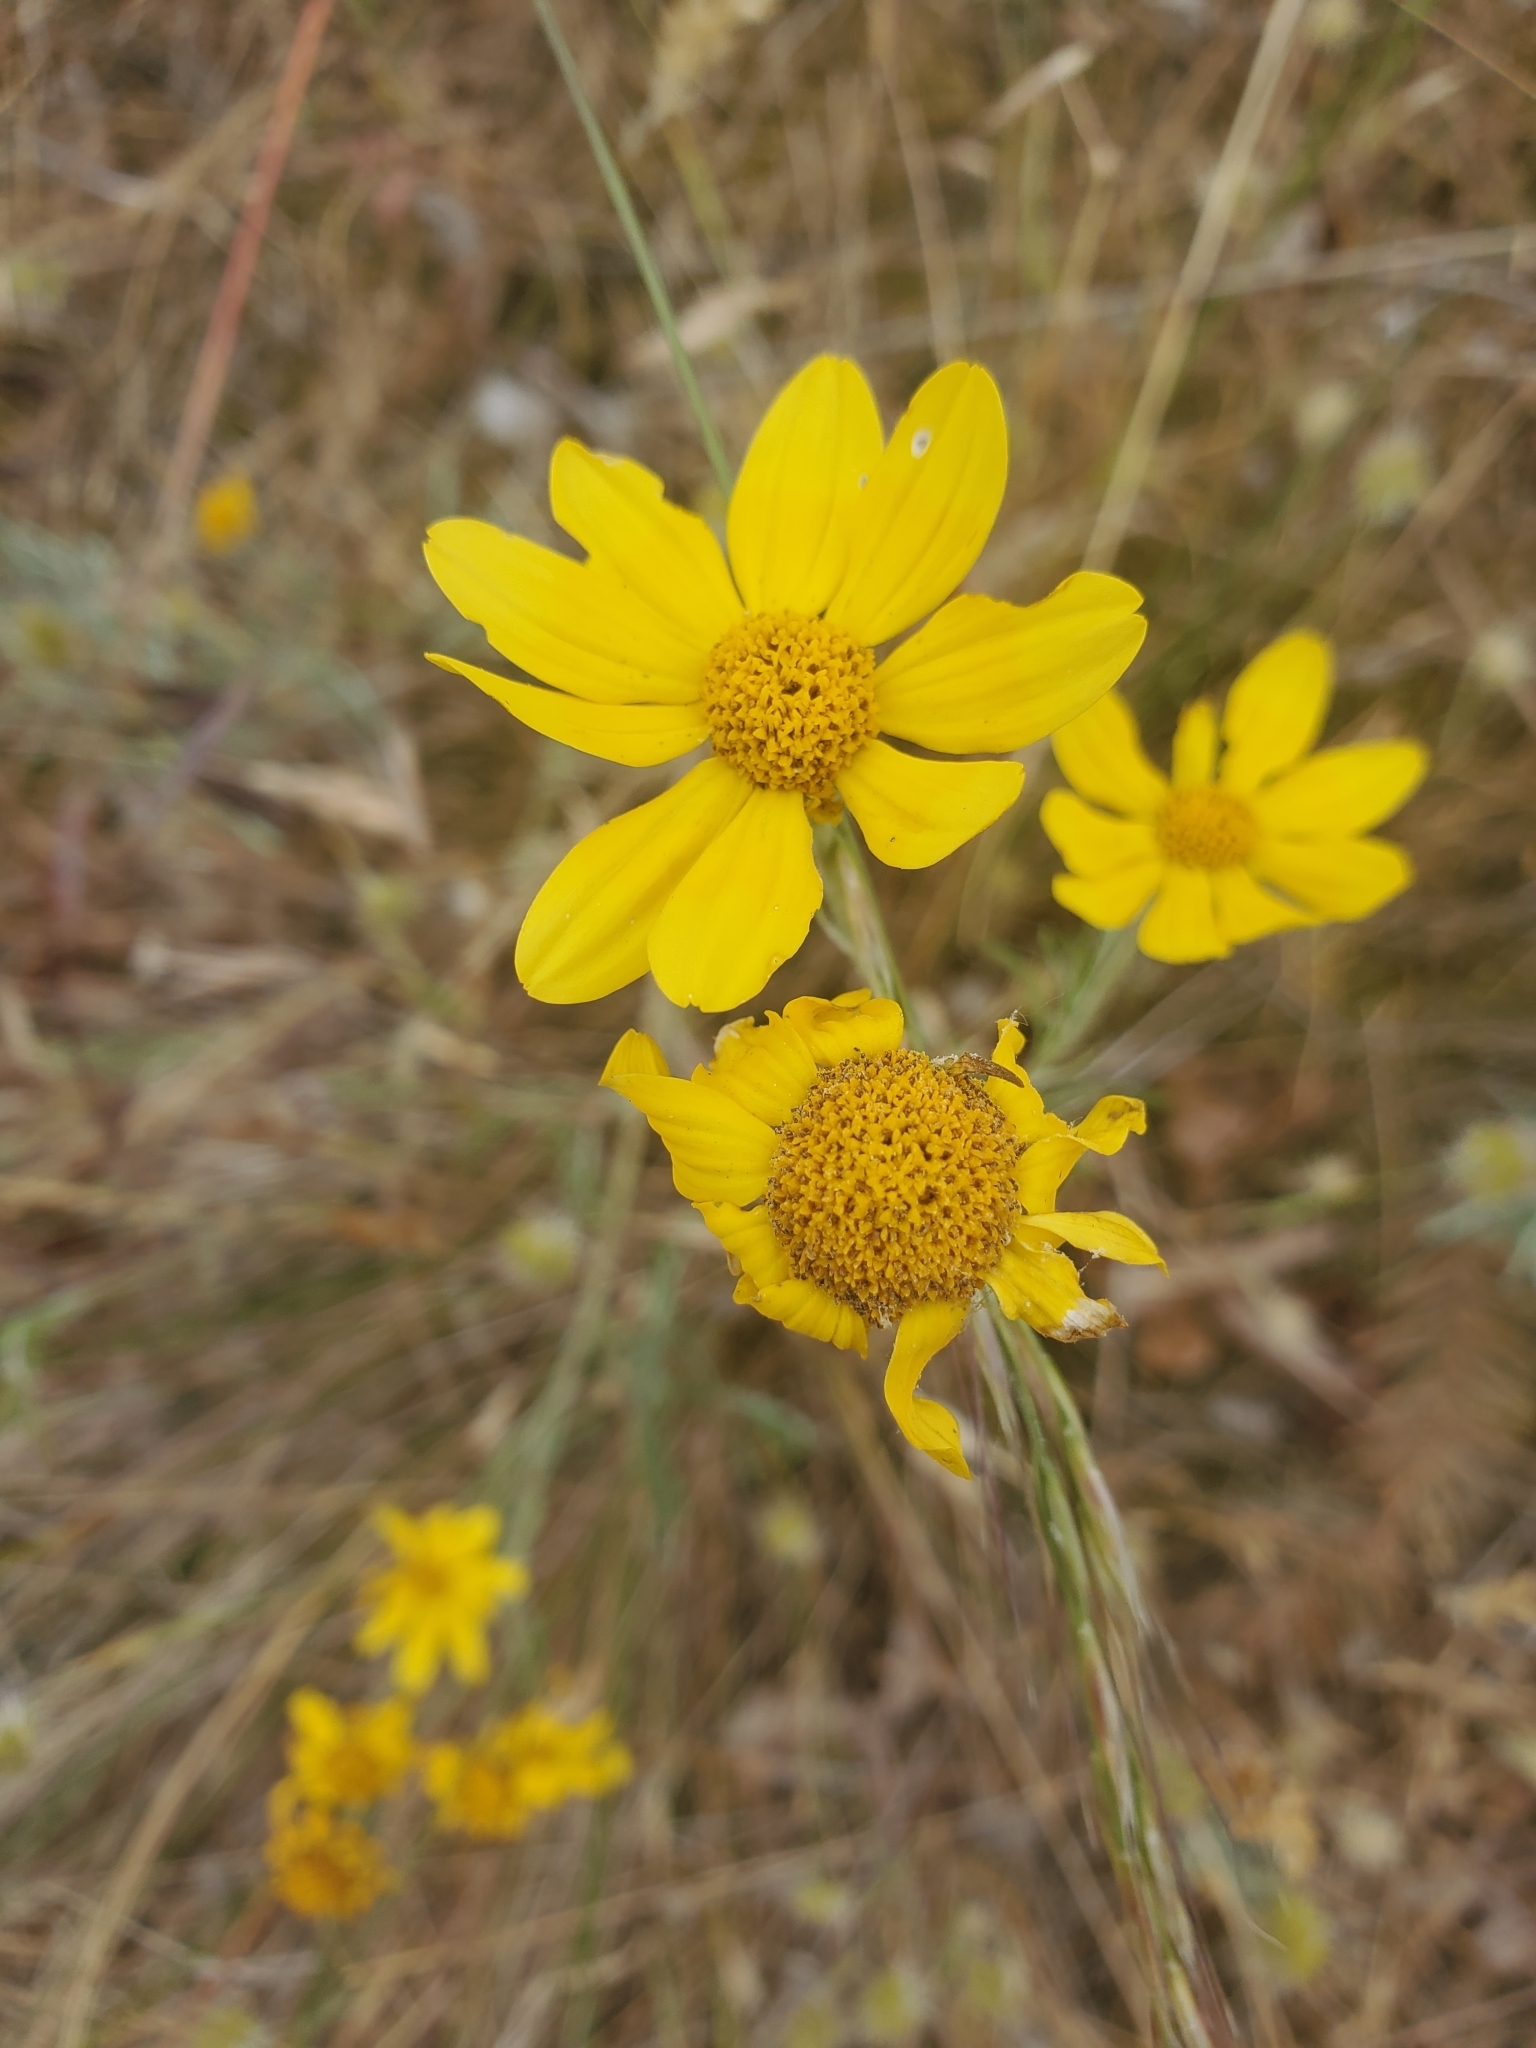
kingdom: Plantae
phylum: Tracheophyta
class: Magnoliopsida
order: Asterales
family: Asteraceae
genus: Eriophyllum
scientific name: Eriophyllum lanatum
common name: Common woolly-sunflower
